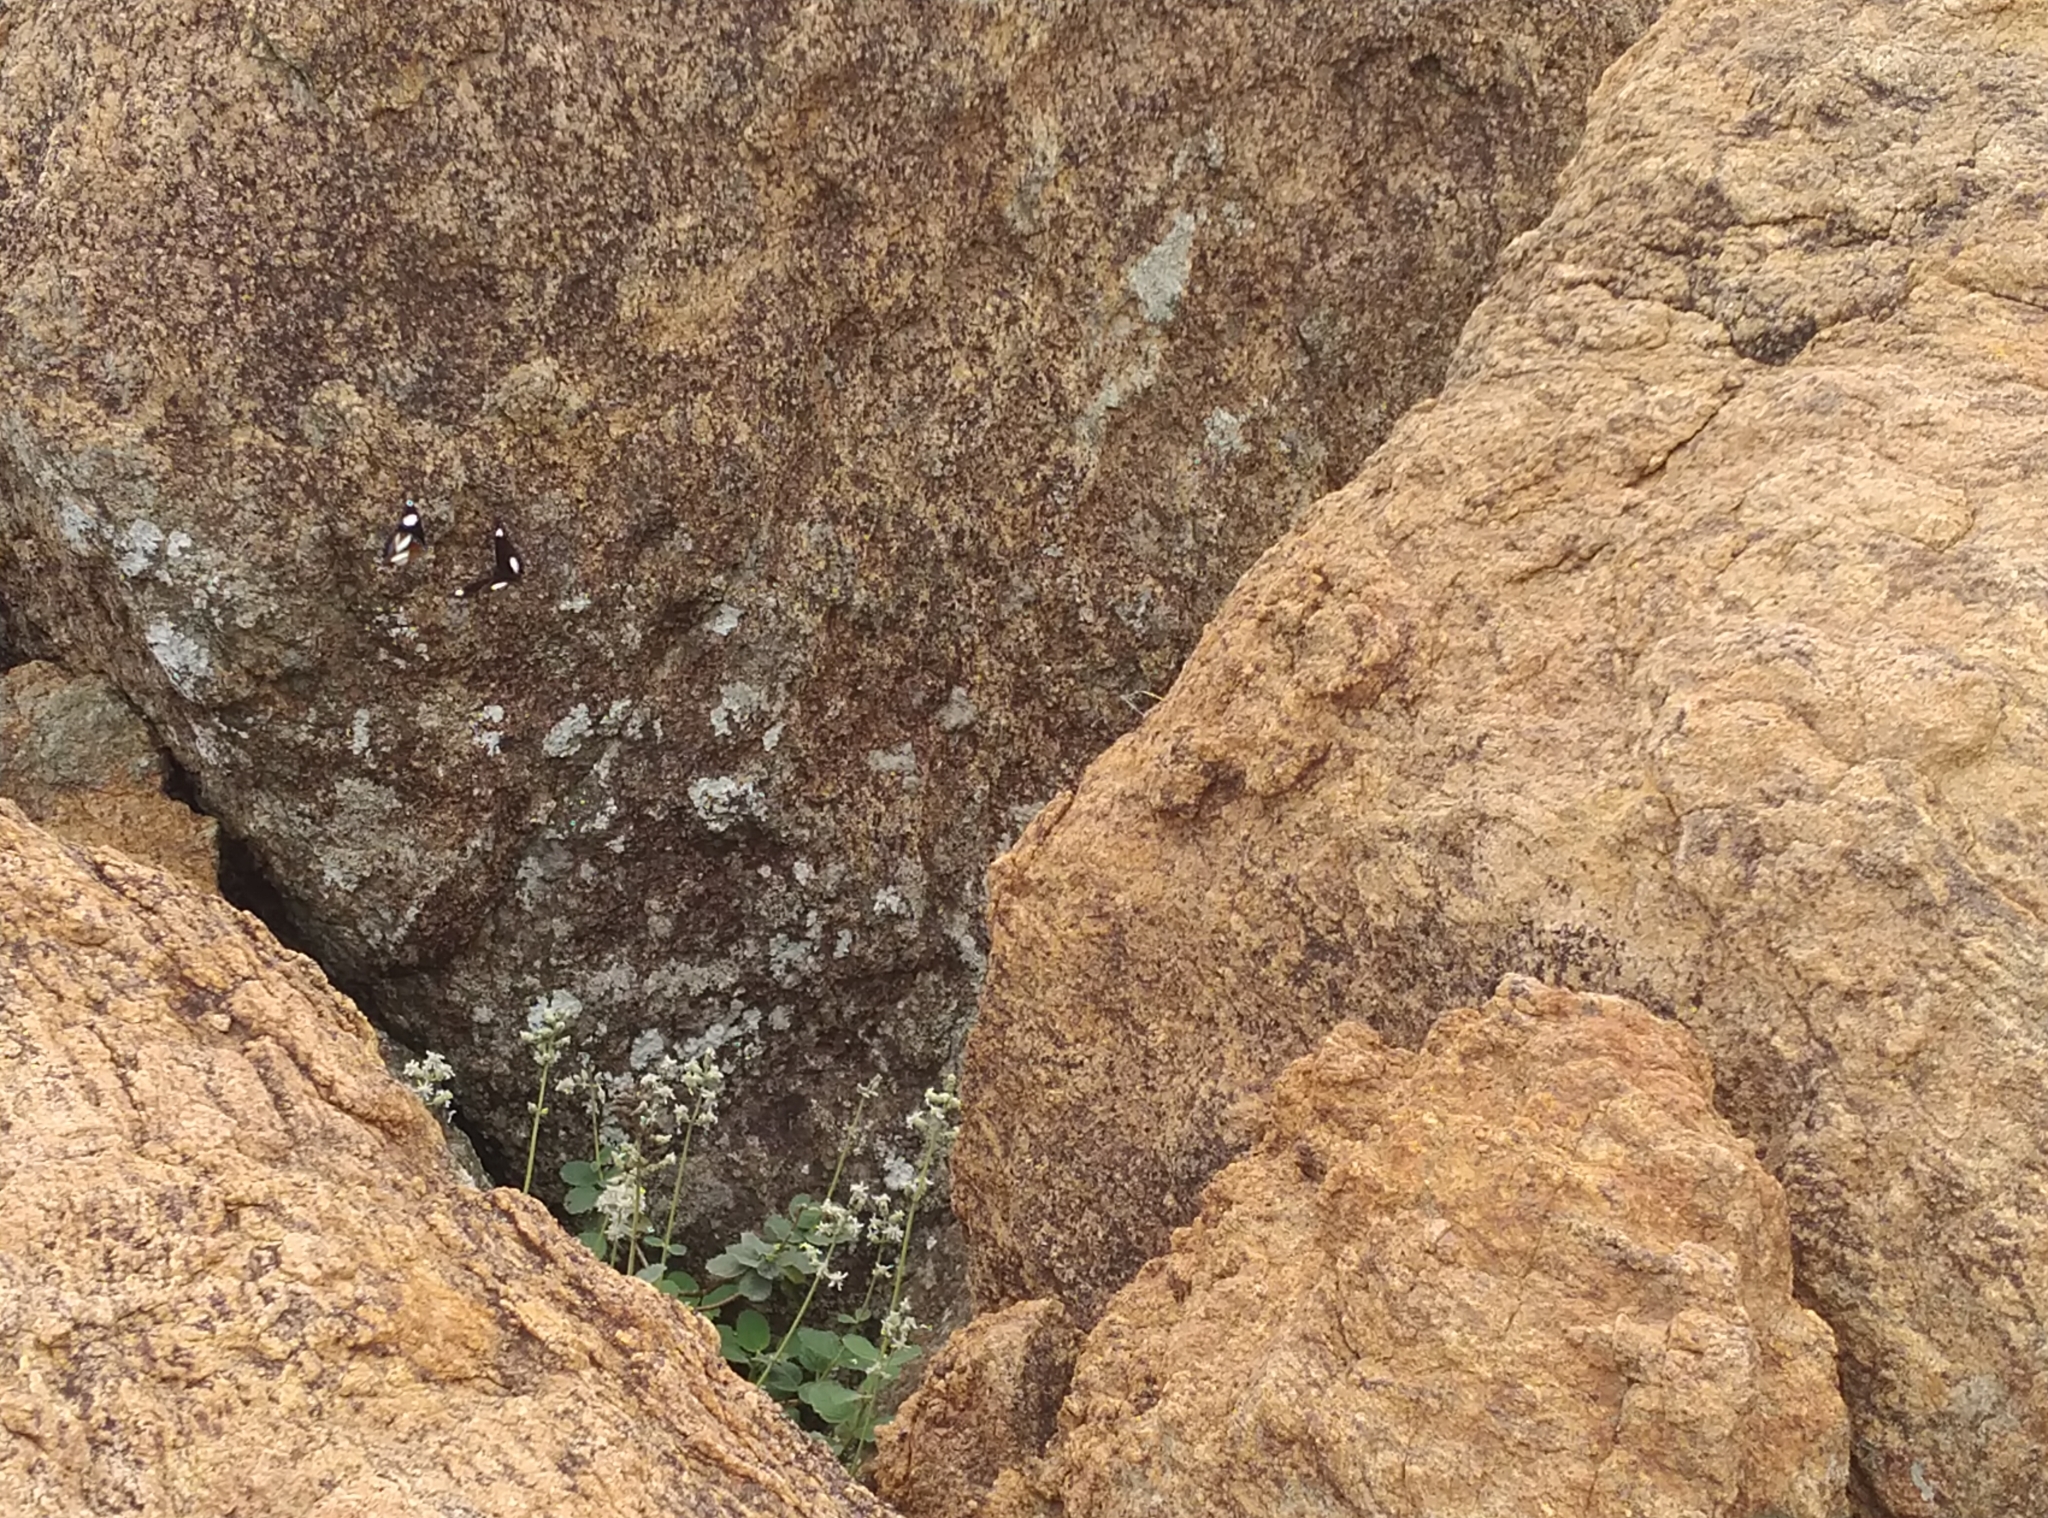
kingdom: Animalia
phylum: Arthropoda
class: Insecta
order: Lepidoptera
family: Nymphalidae
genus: Hypolimnas
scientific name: Hypolimnas misippus
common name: False plain tiger
